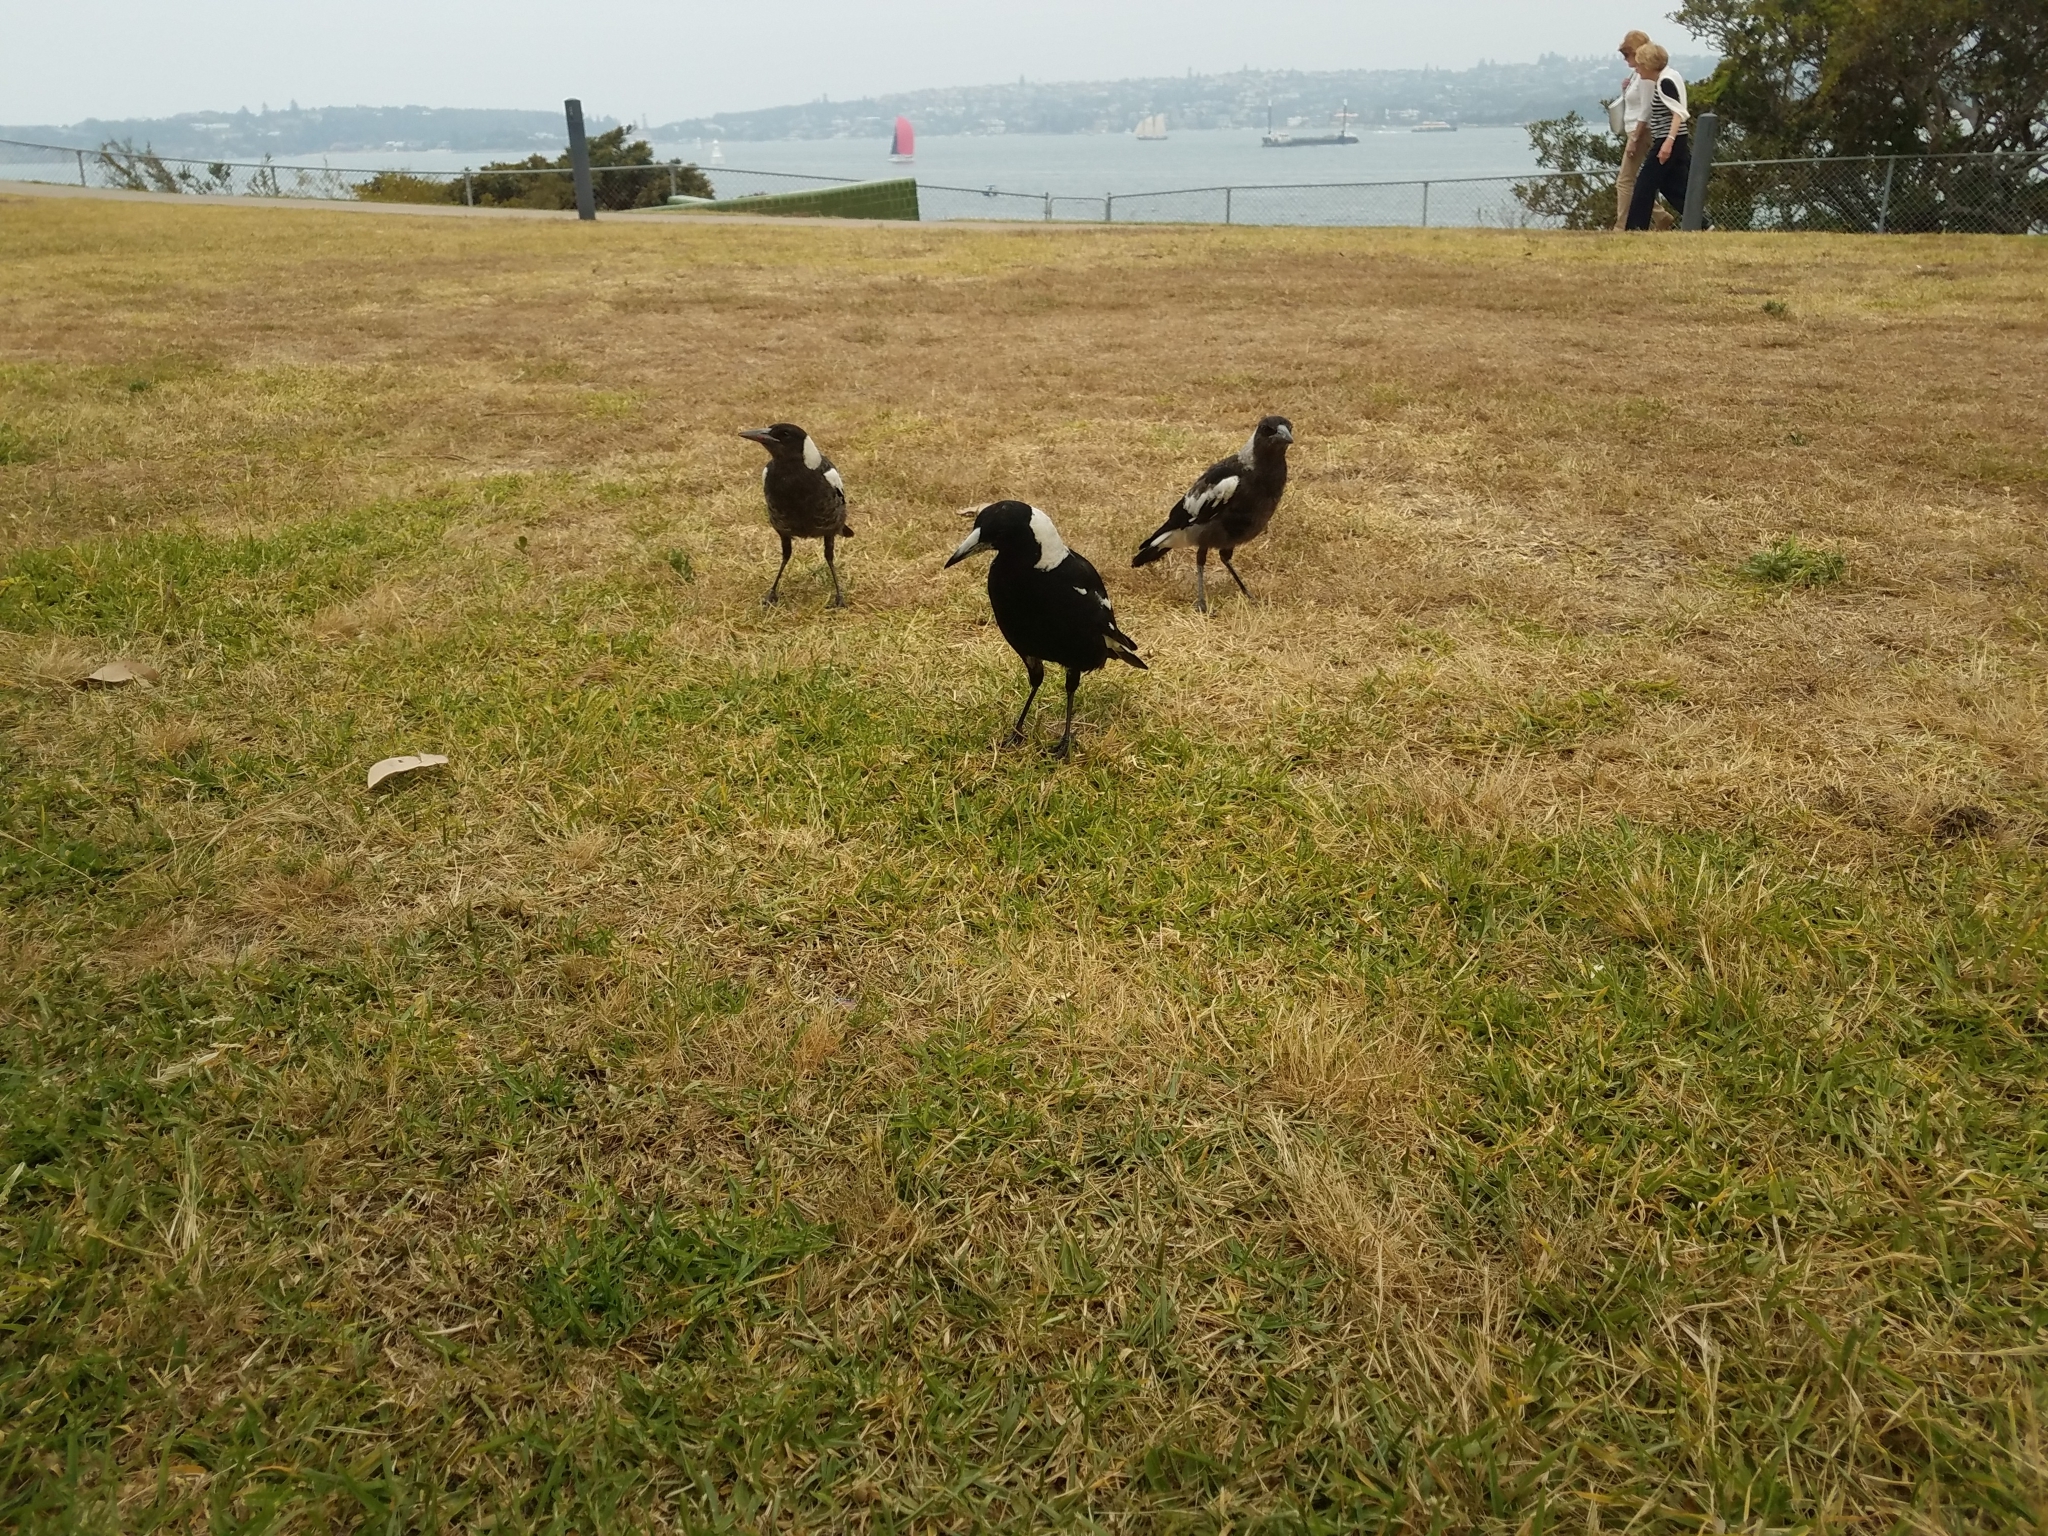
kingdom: Animalia
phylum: Chordata
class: Aves
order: Passeriformes
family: Cracticidae
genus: Gymnorhina
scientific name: Gymnorhina tibicen
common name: Australian magpie
